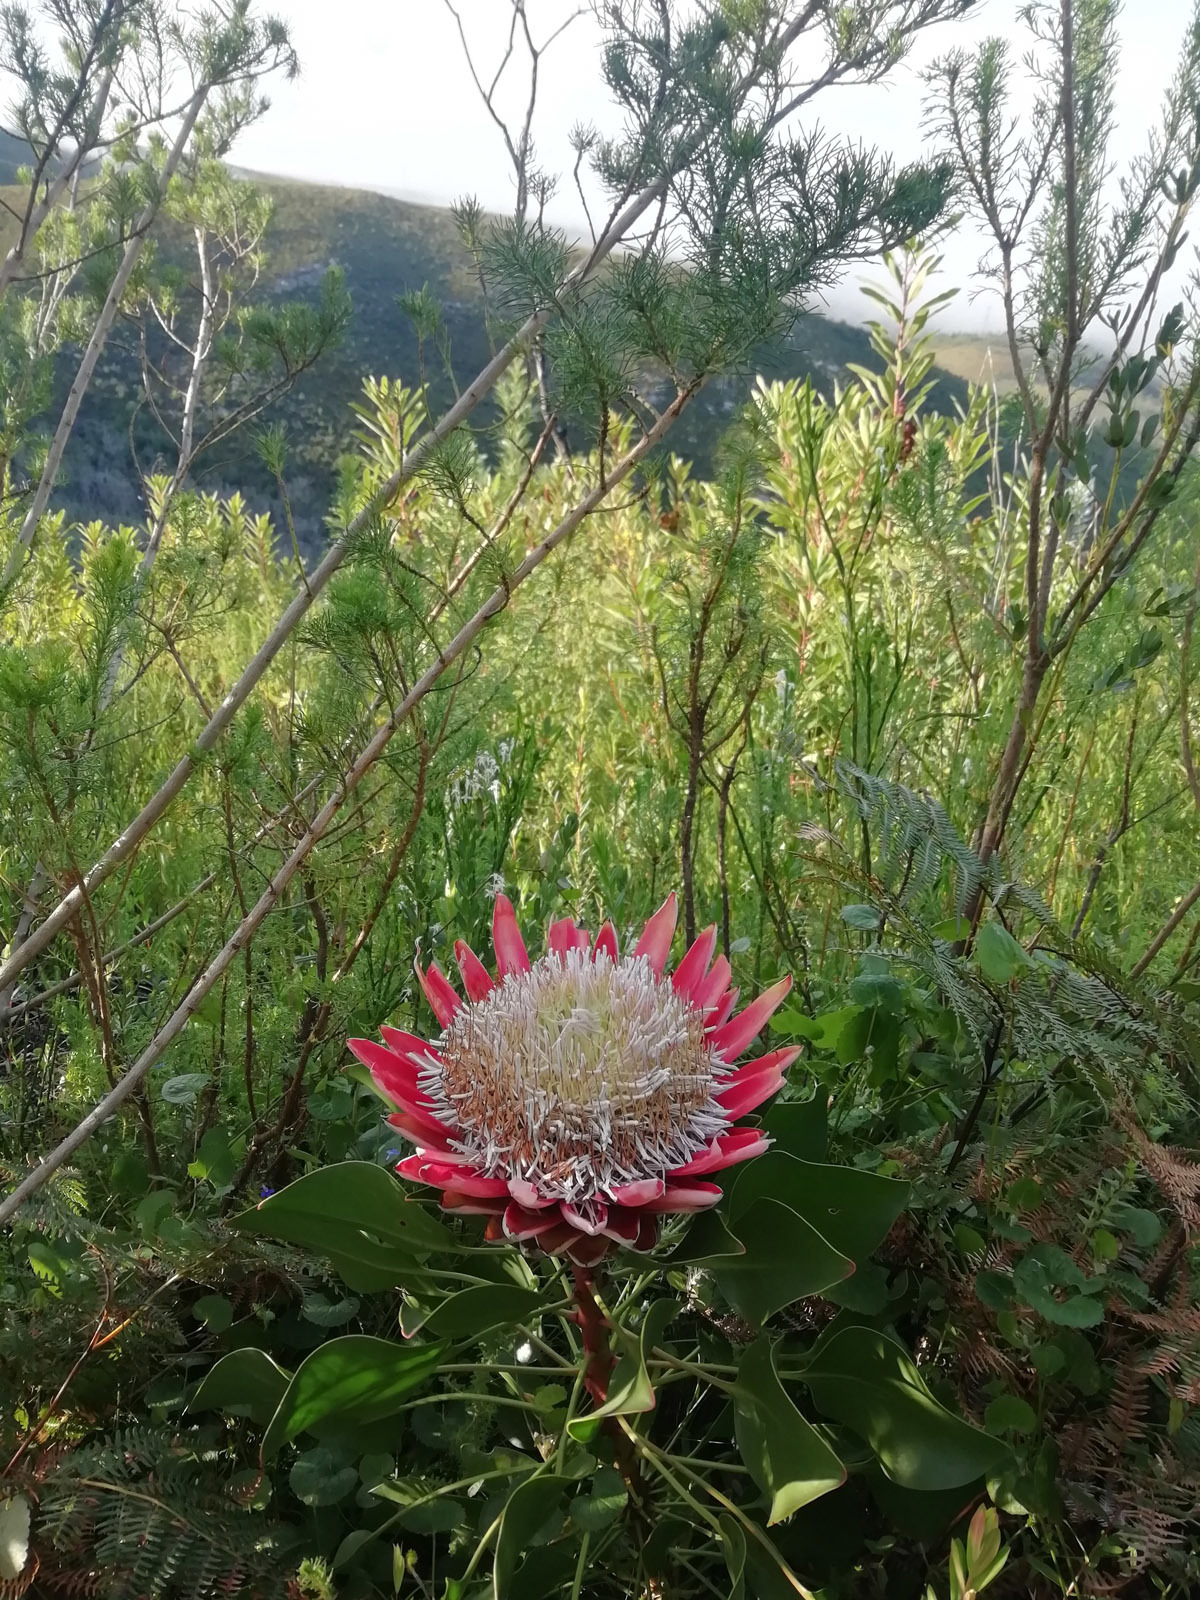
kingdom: Plantae
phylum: Tracheophyta
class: Magnoliopsida
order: Proteales
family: Proteaceae
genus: Protea
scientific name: Protea cynaroides
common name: King protea
